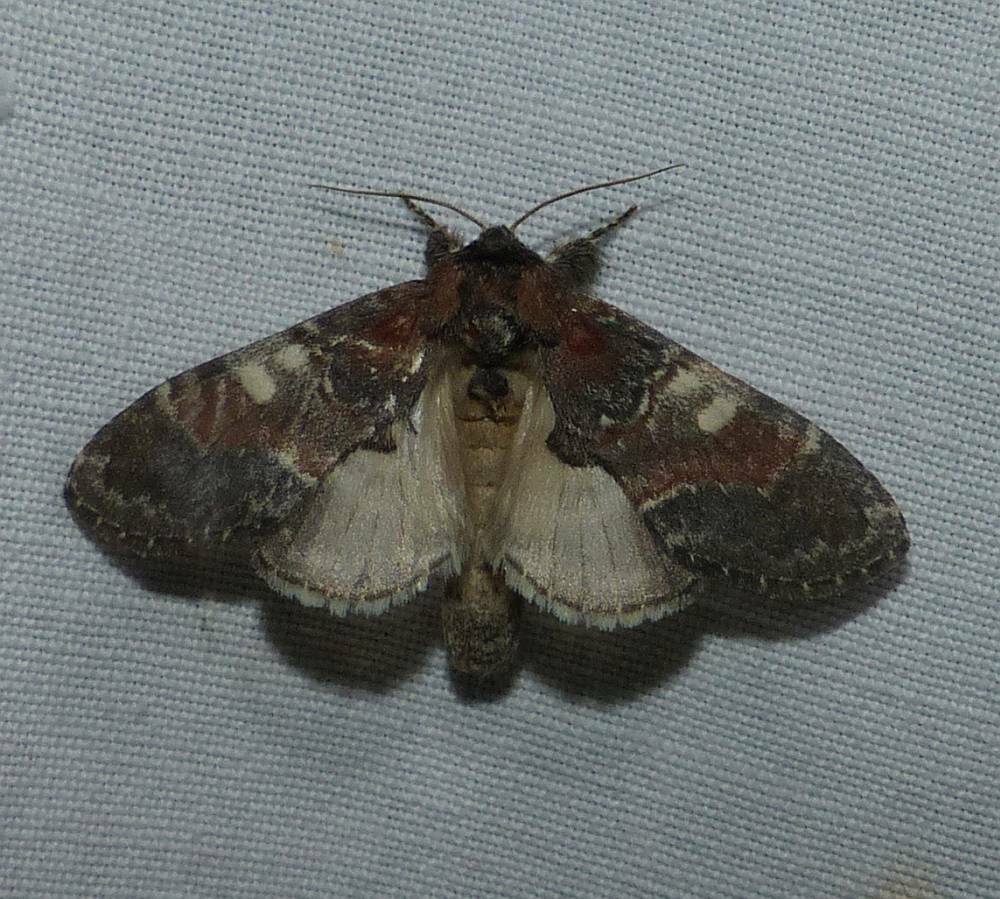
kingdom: Animalia
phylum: Arthropoda
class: Insecta
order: Lepidoptera
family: Notodontidae
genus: Peridea
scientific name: Peridea ferruginea
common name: Chocolate prominent
